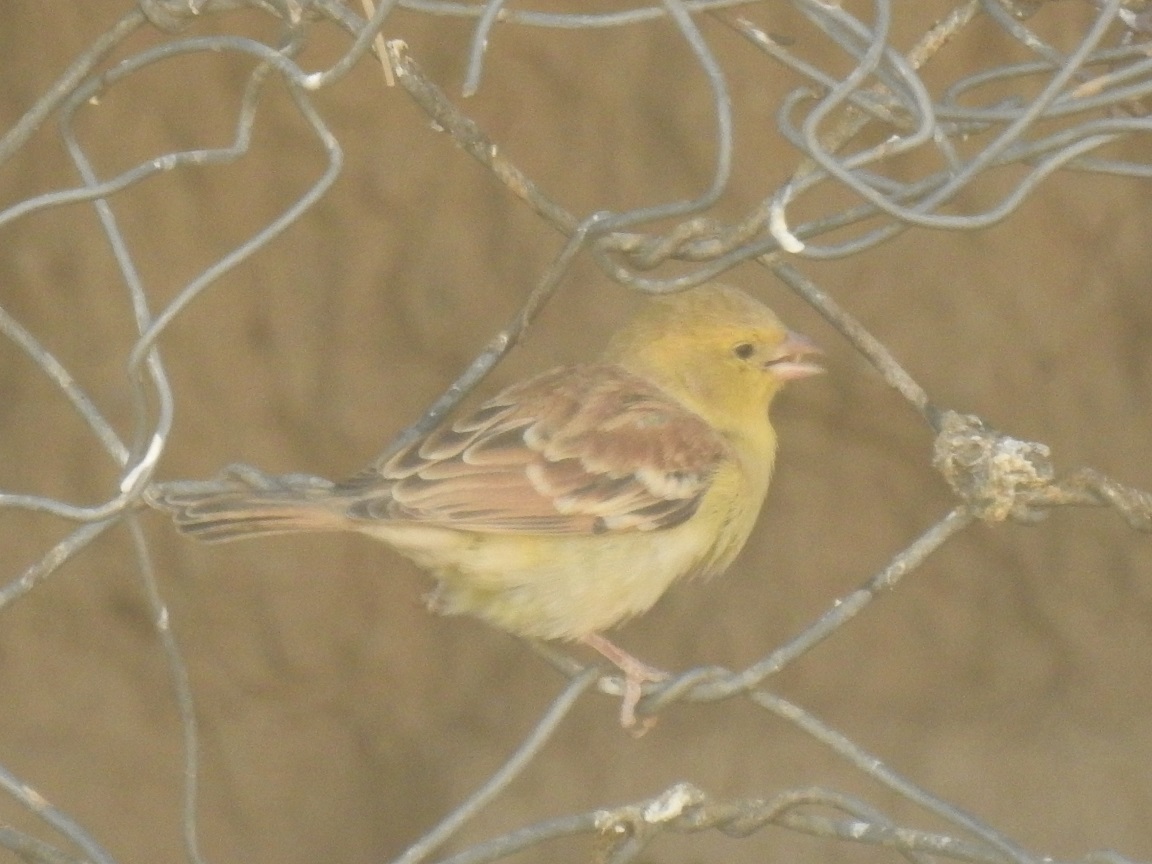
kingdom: Animalia
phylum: Chordata
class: Aves
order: Passeriformes
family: Passeridae
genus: Passer
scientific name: Passer luteus
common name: Sudan golden sparrow
